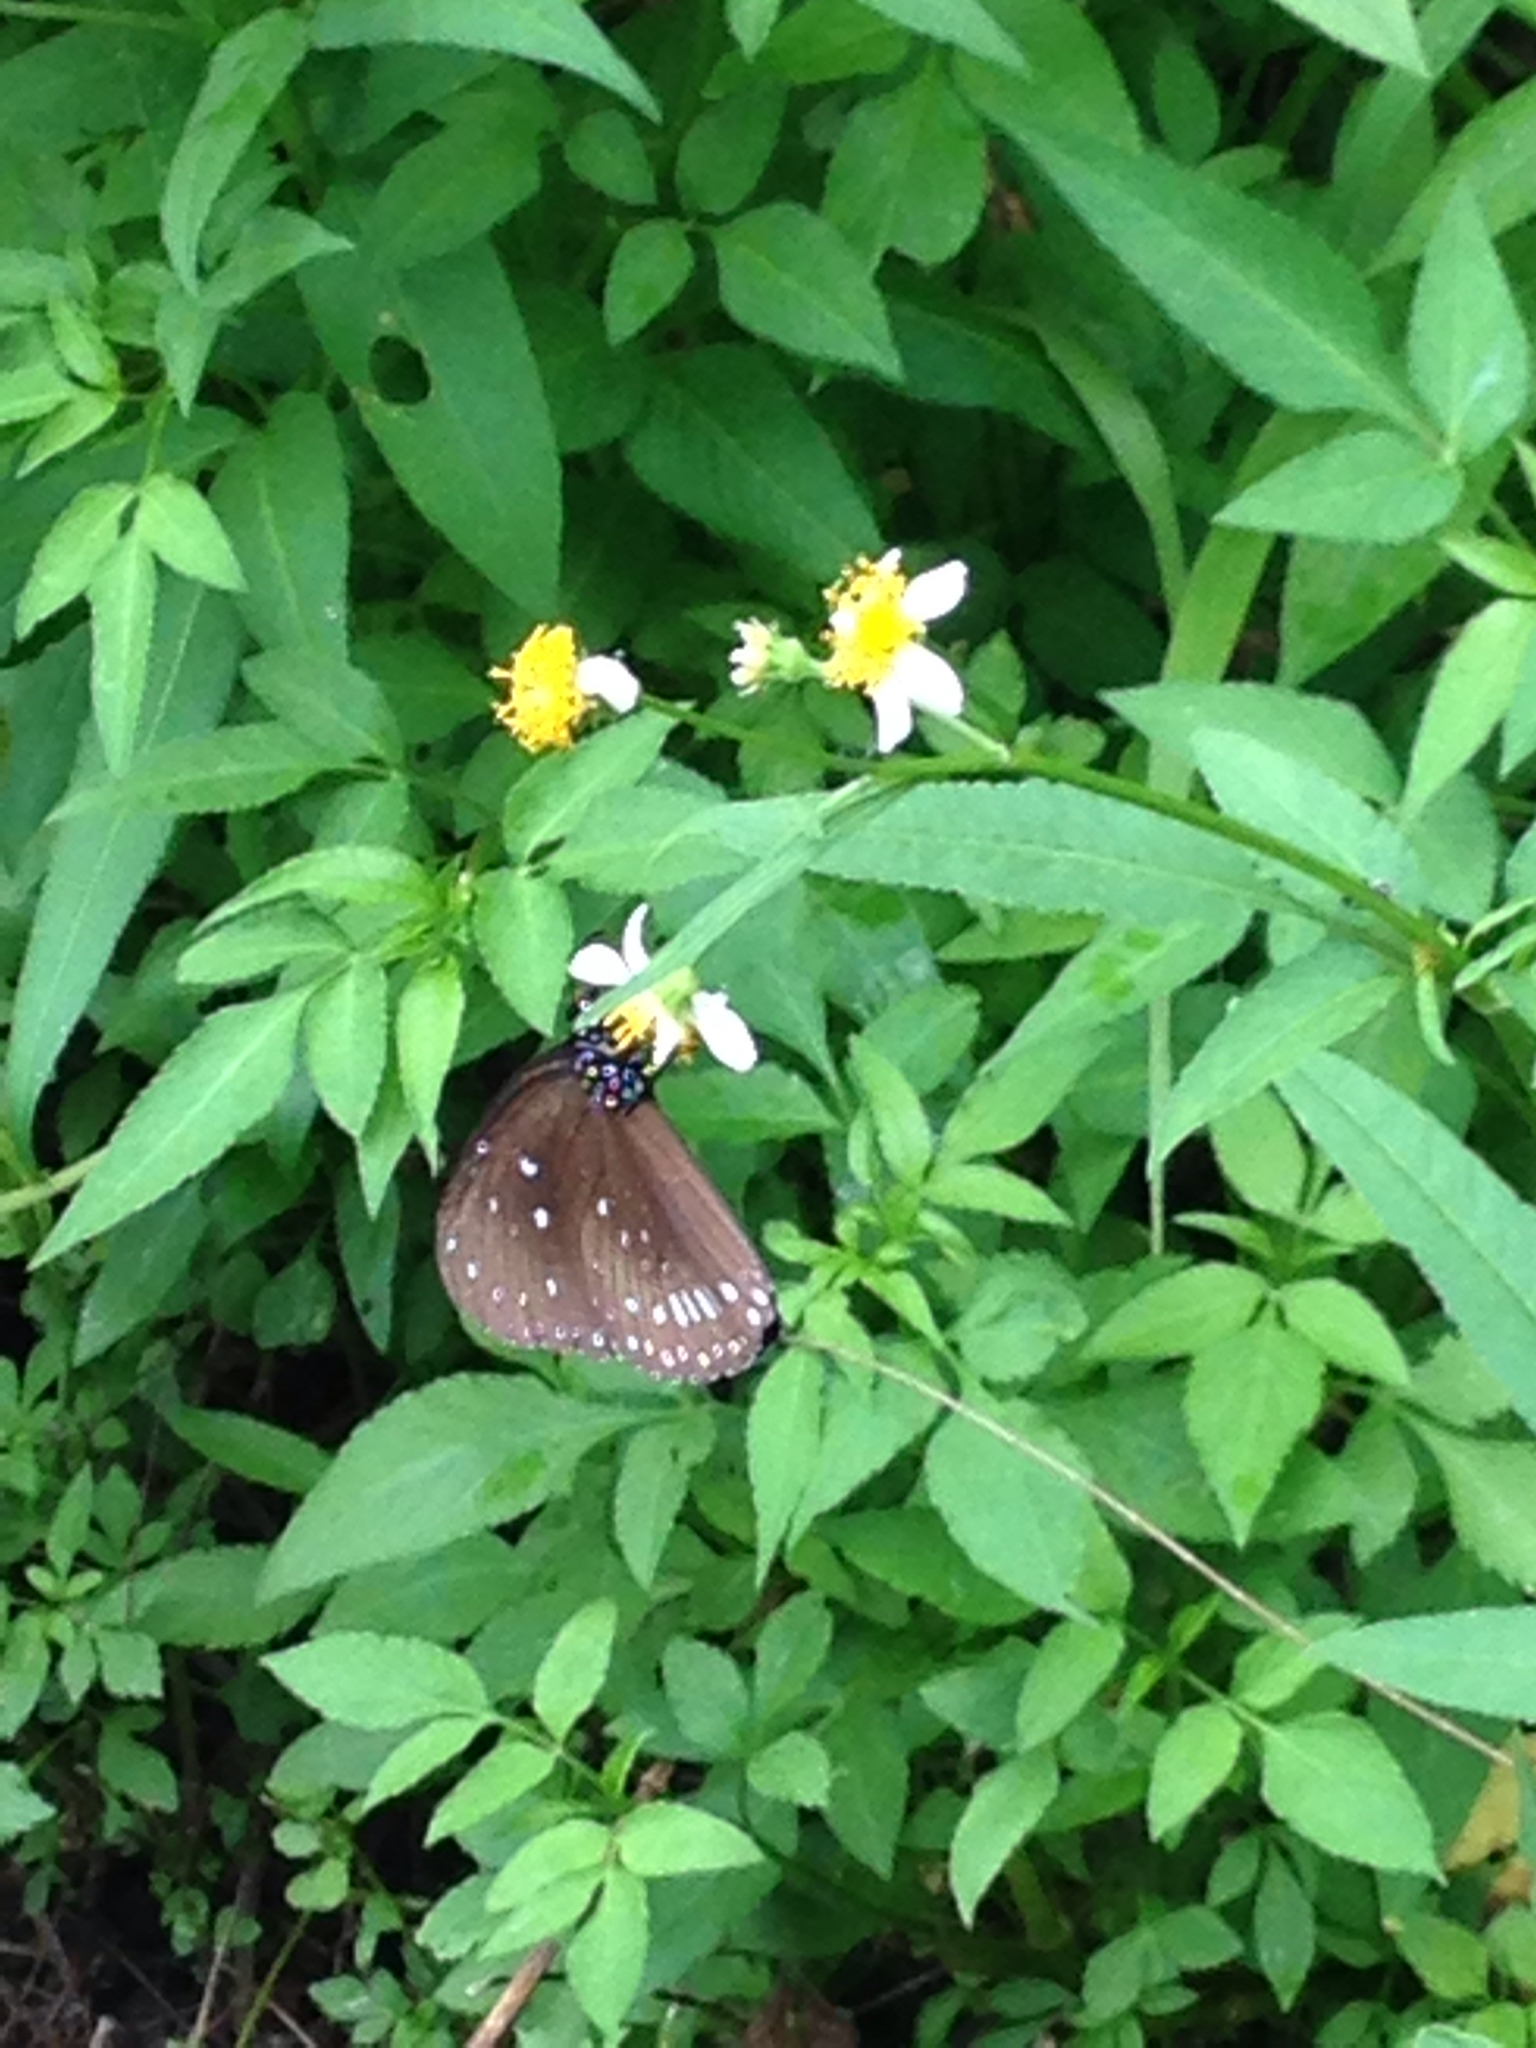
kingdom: Animalia
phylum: Arthropoda
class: Insecta
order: Lepidoptera
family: Nymphalidae
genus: Euploea
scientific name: Euploea midamus
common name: Blue-spotted crow butterfly
